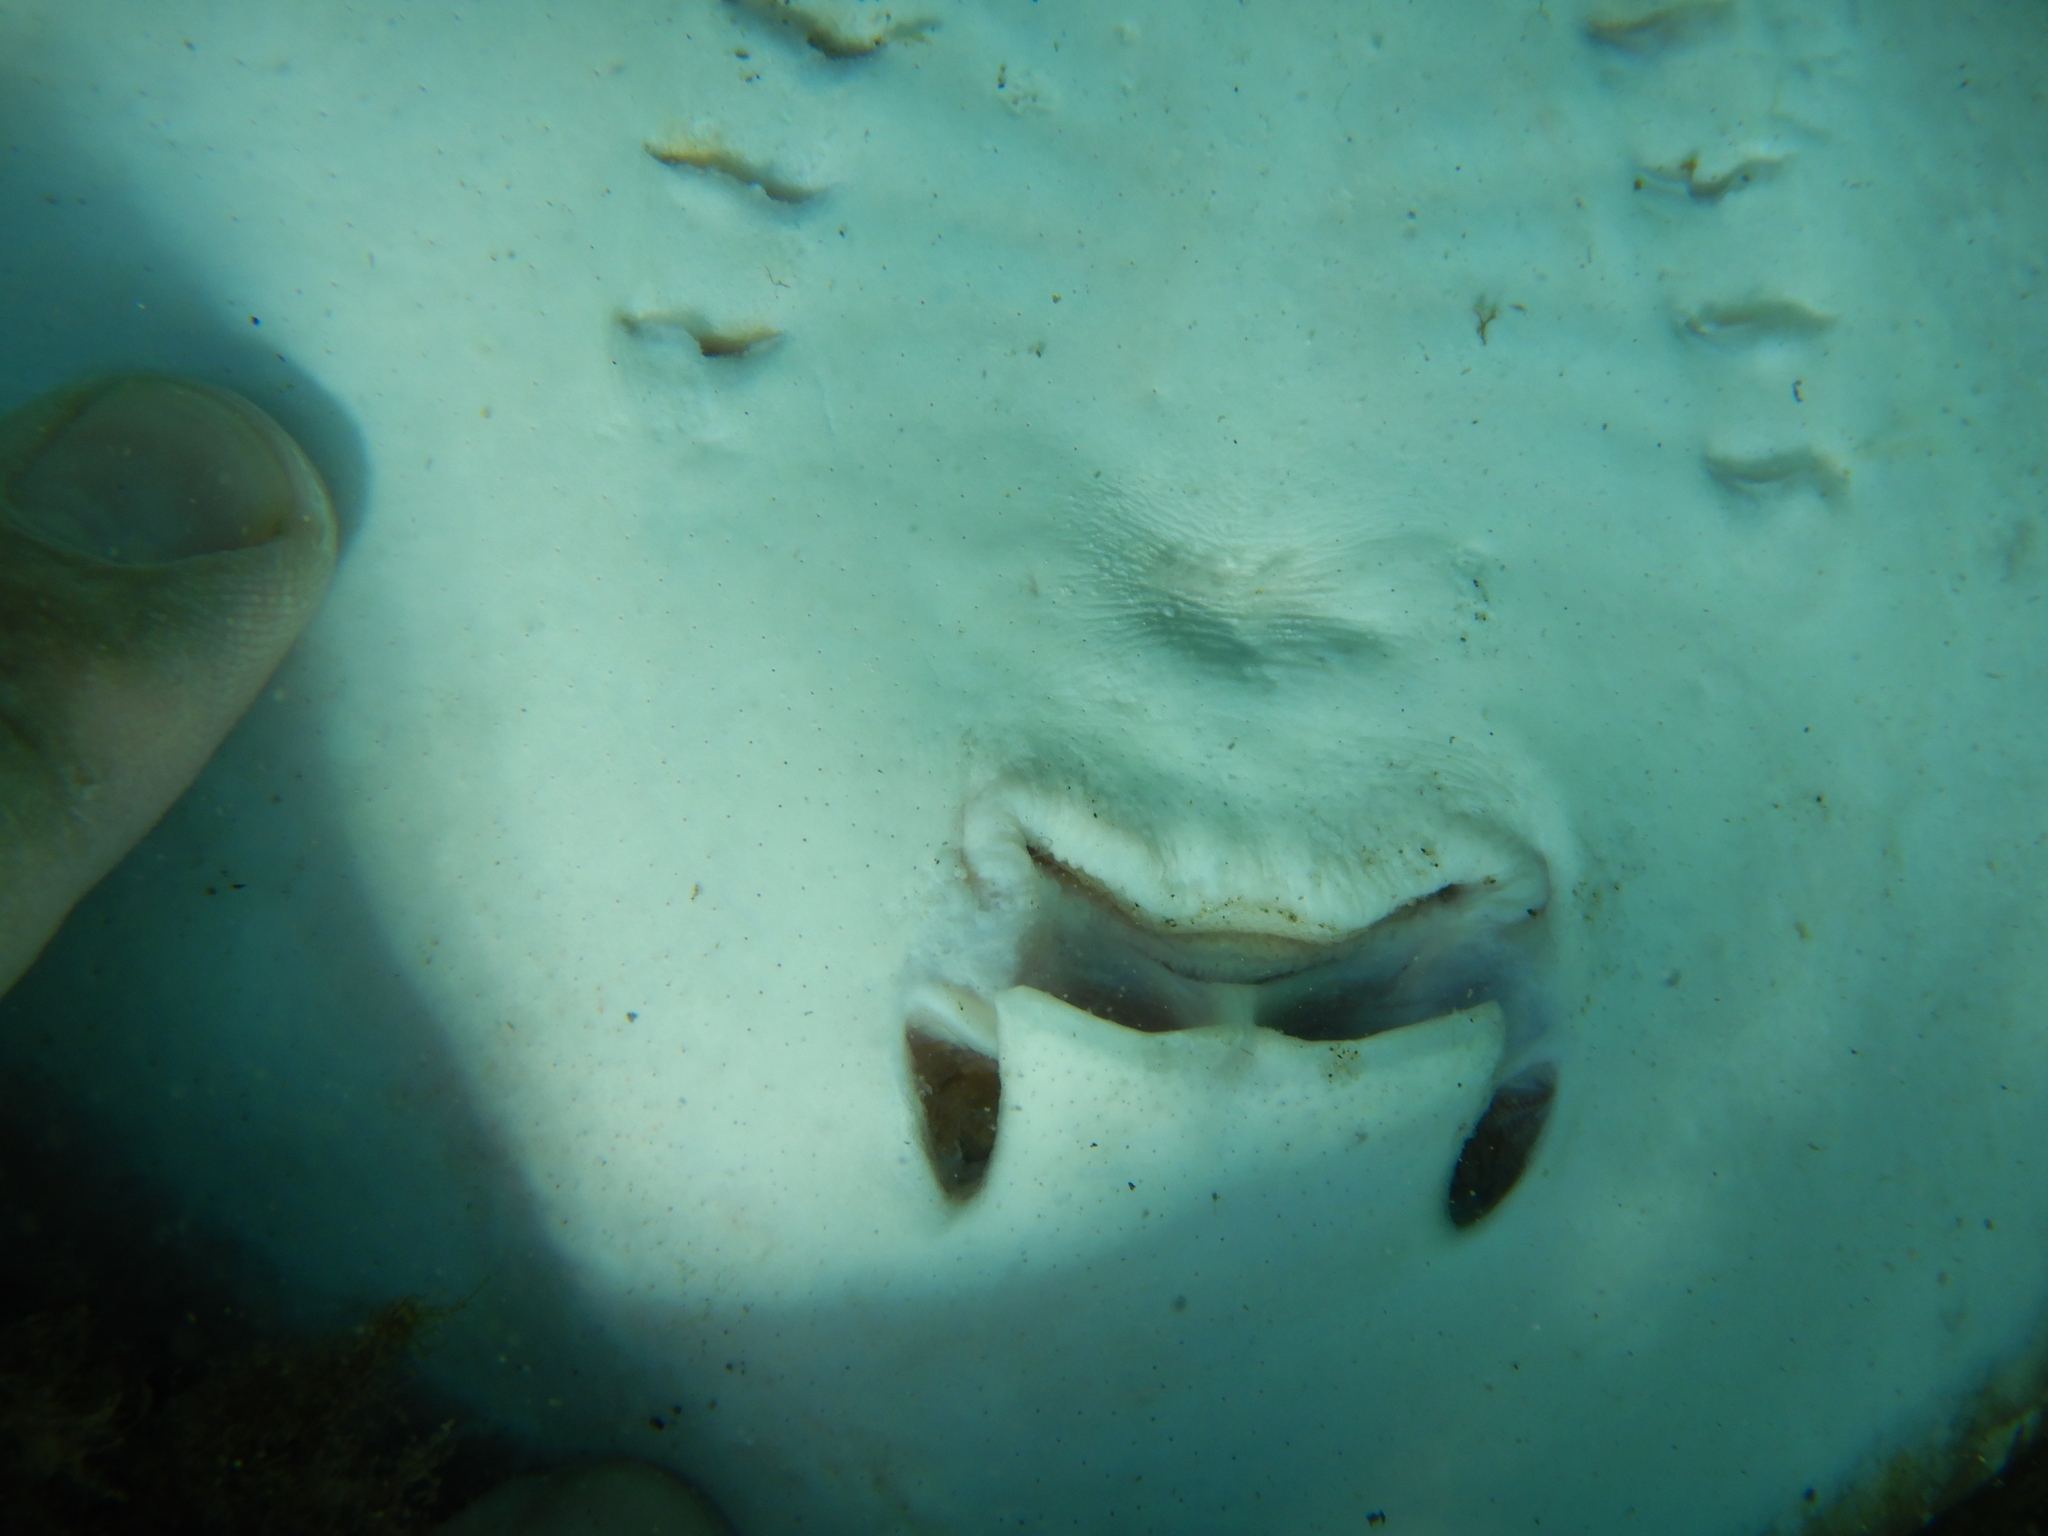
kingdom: Animalia
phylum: Chordata
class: Elasmobranchii
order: Myliobatiformes
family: Dasyatidae
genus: Dasyatis
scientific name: Dasyatis pastinaca
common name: Common stingray
